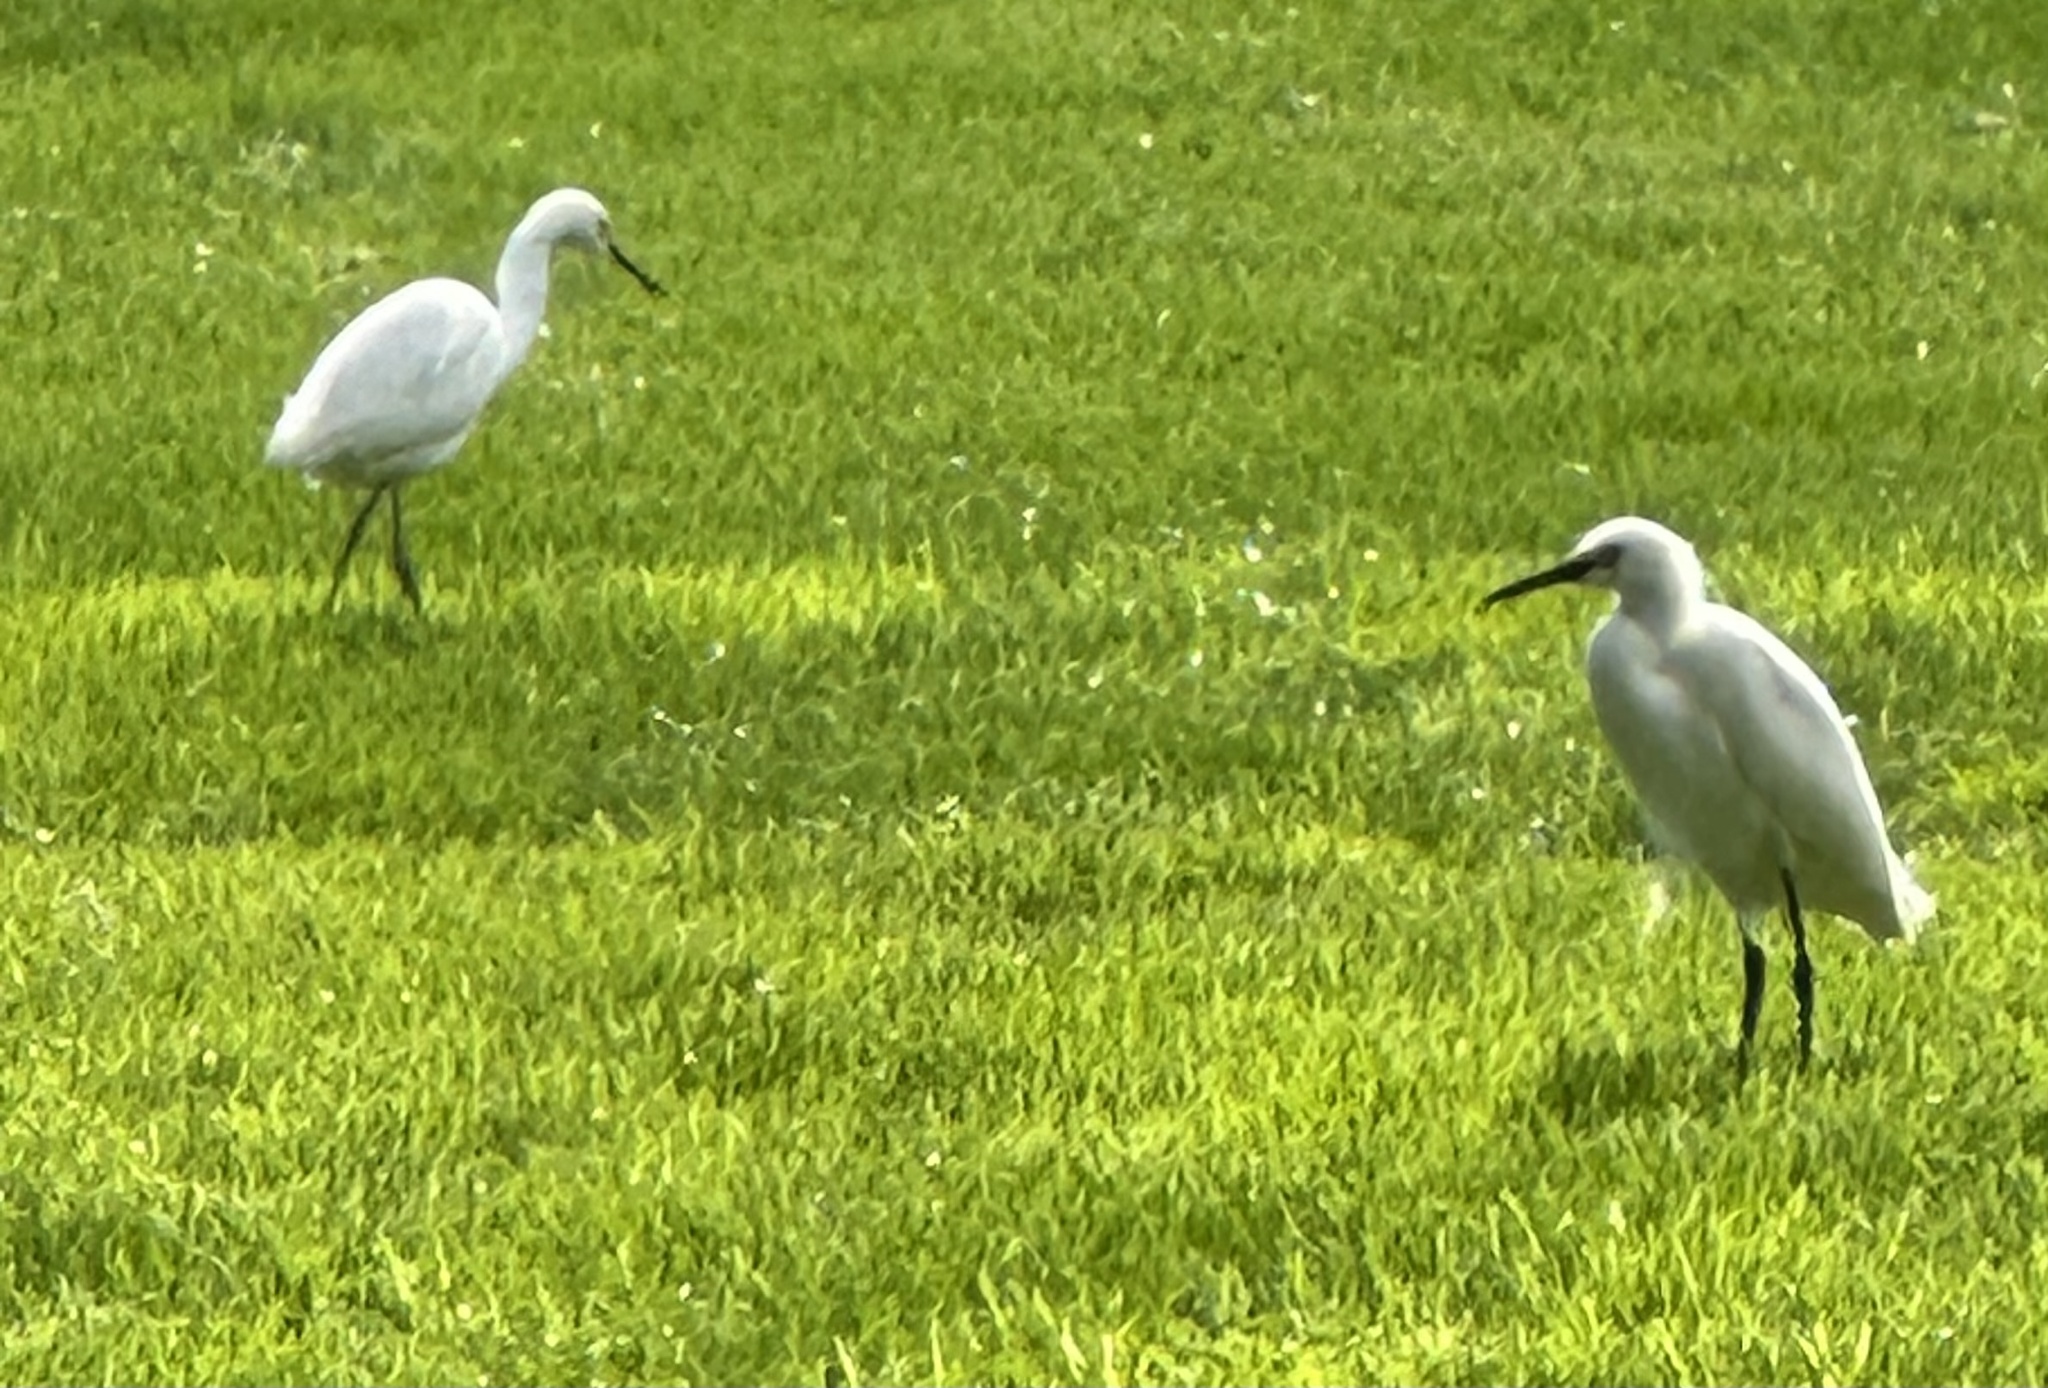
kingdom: Animalia
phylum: Chordata
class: Aves
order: Pelecaniformes
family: Ardeidae
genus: Egretta
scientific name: Egretta thula
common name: Snowy egret
